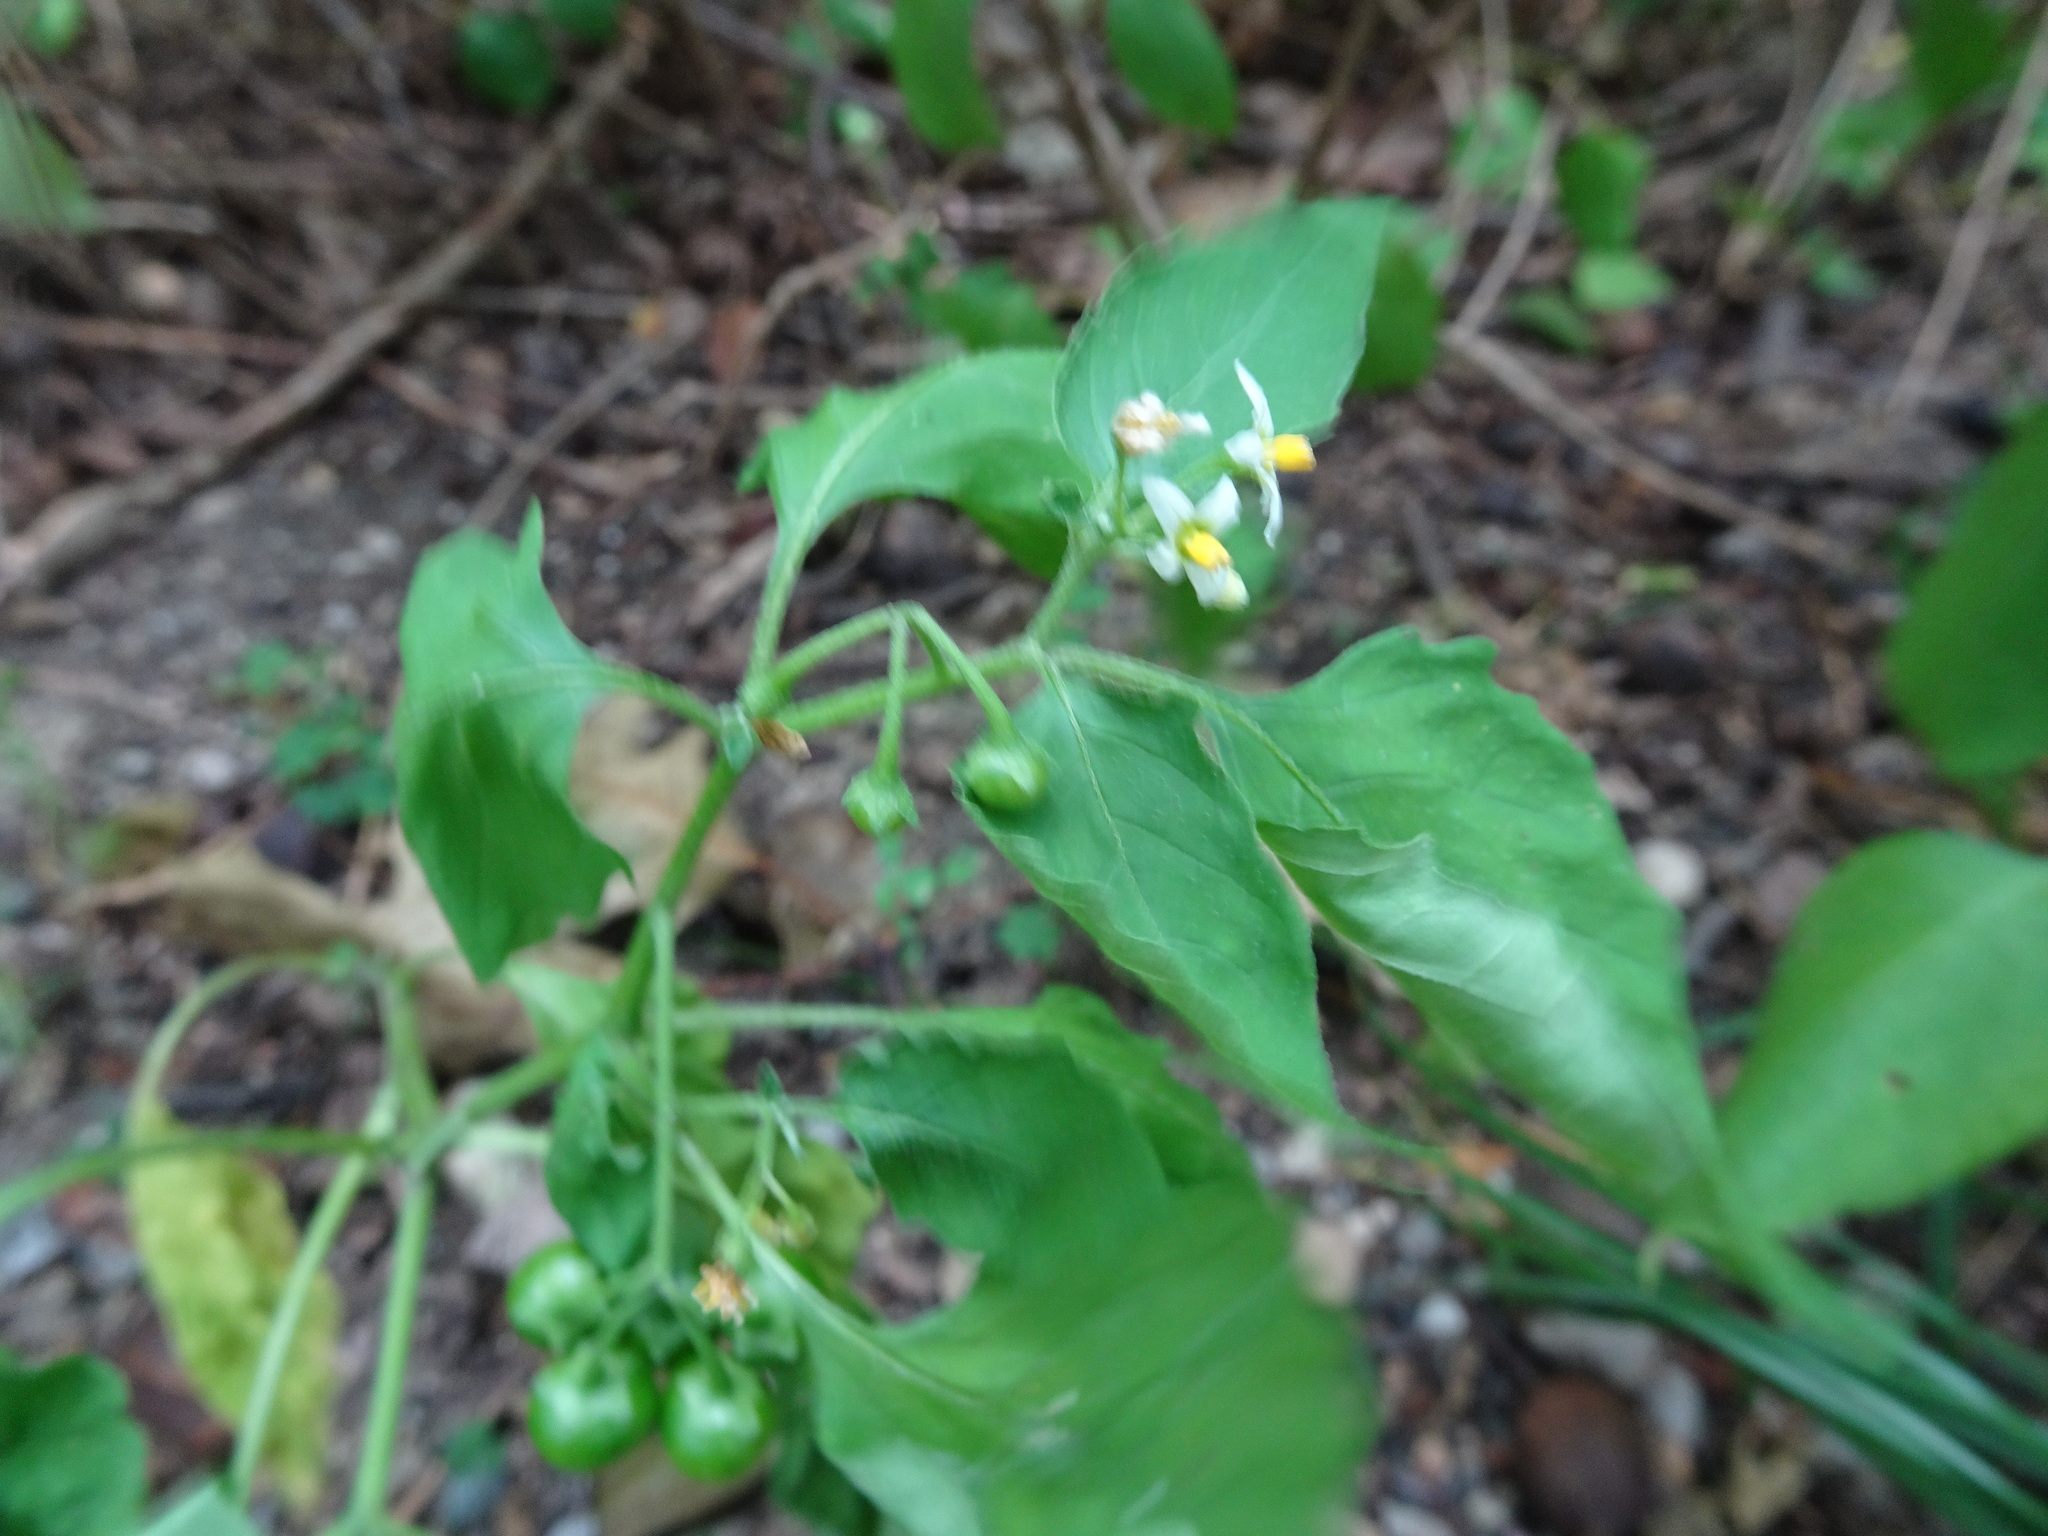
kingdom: Plantae
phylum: Tracheophyta
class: Magnoliopsida
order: Solanales
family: Solanaceae
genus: Solanum
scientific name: Solanum emulans
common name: Eastern black nightshade
